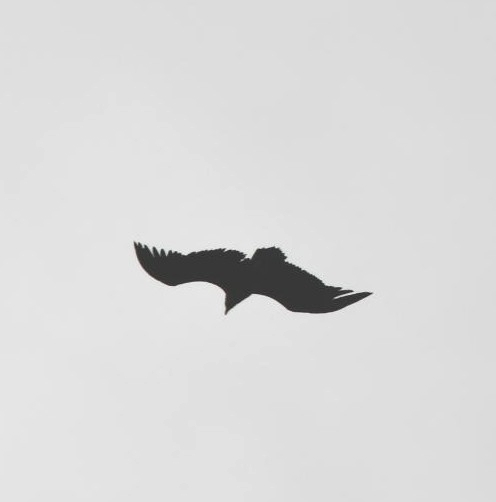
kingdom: Animalia
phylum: Chordata
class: Aves
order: Accipitriformes
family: Accipitridae
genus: Aegypius
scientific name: Aegypius monachus
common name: Cinereous vulture
